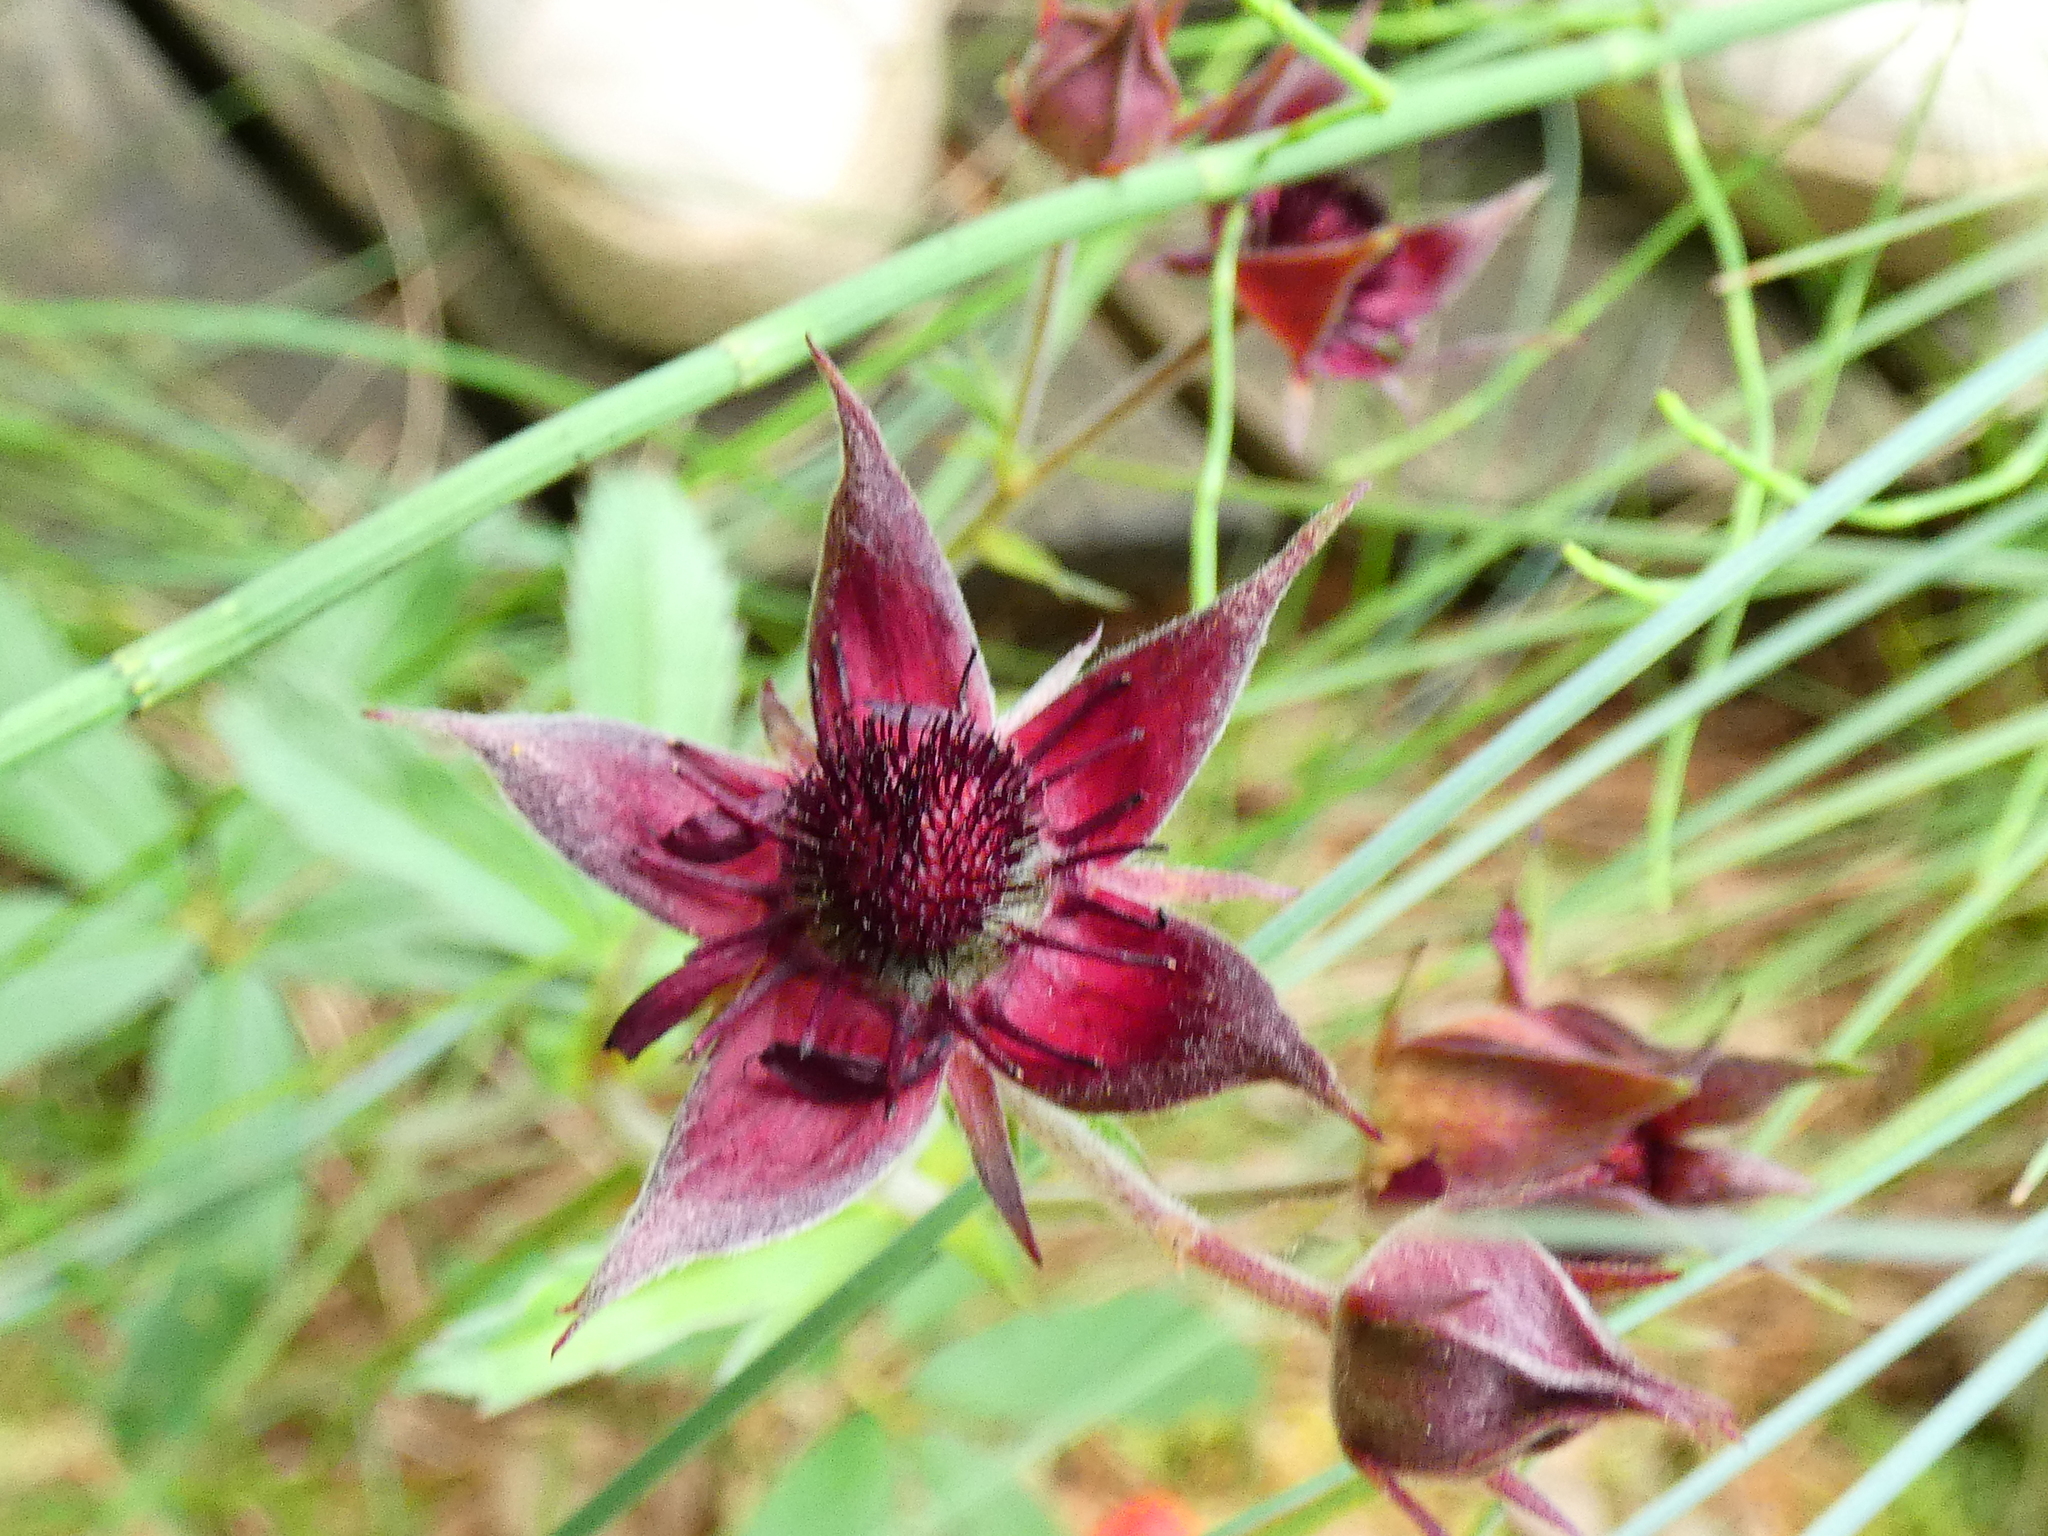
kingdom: Plantae
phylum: Tracheophyta
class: Magnoliopsida
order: Rosales
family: Rosaceae
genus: Comarum
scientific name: Comarum palustre
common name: Marsh cinquefoil
